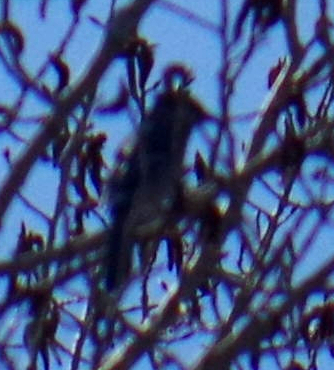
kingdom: Animalia
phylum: Chordata
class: Aves
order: Passeriformes
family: Corvidae
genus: Cyanocitta
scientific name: Cyanocitta cristata
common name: Blue jay
